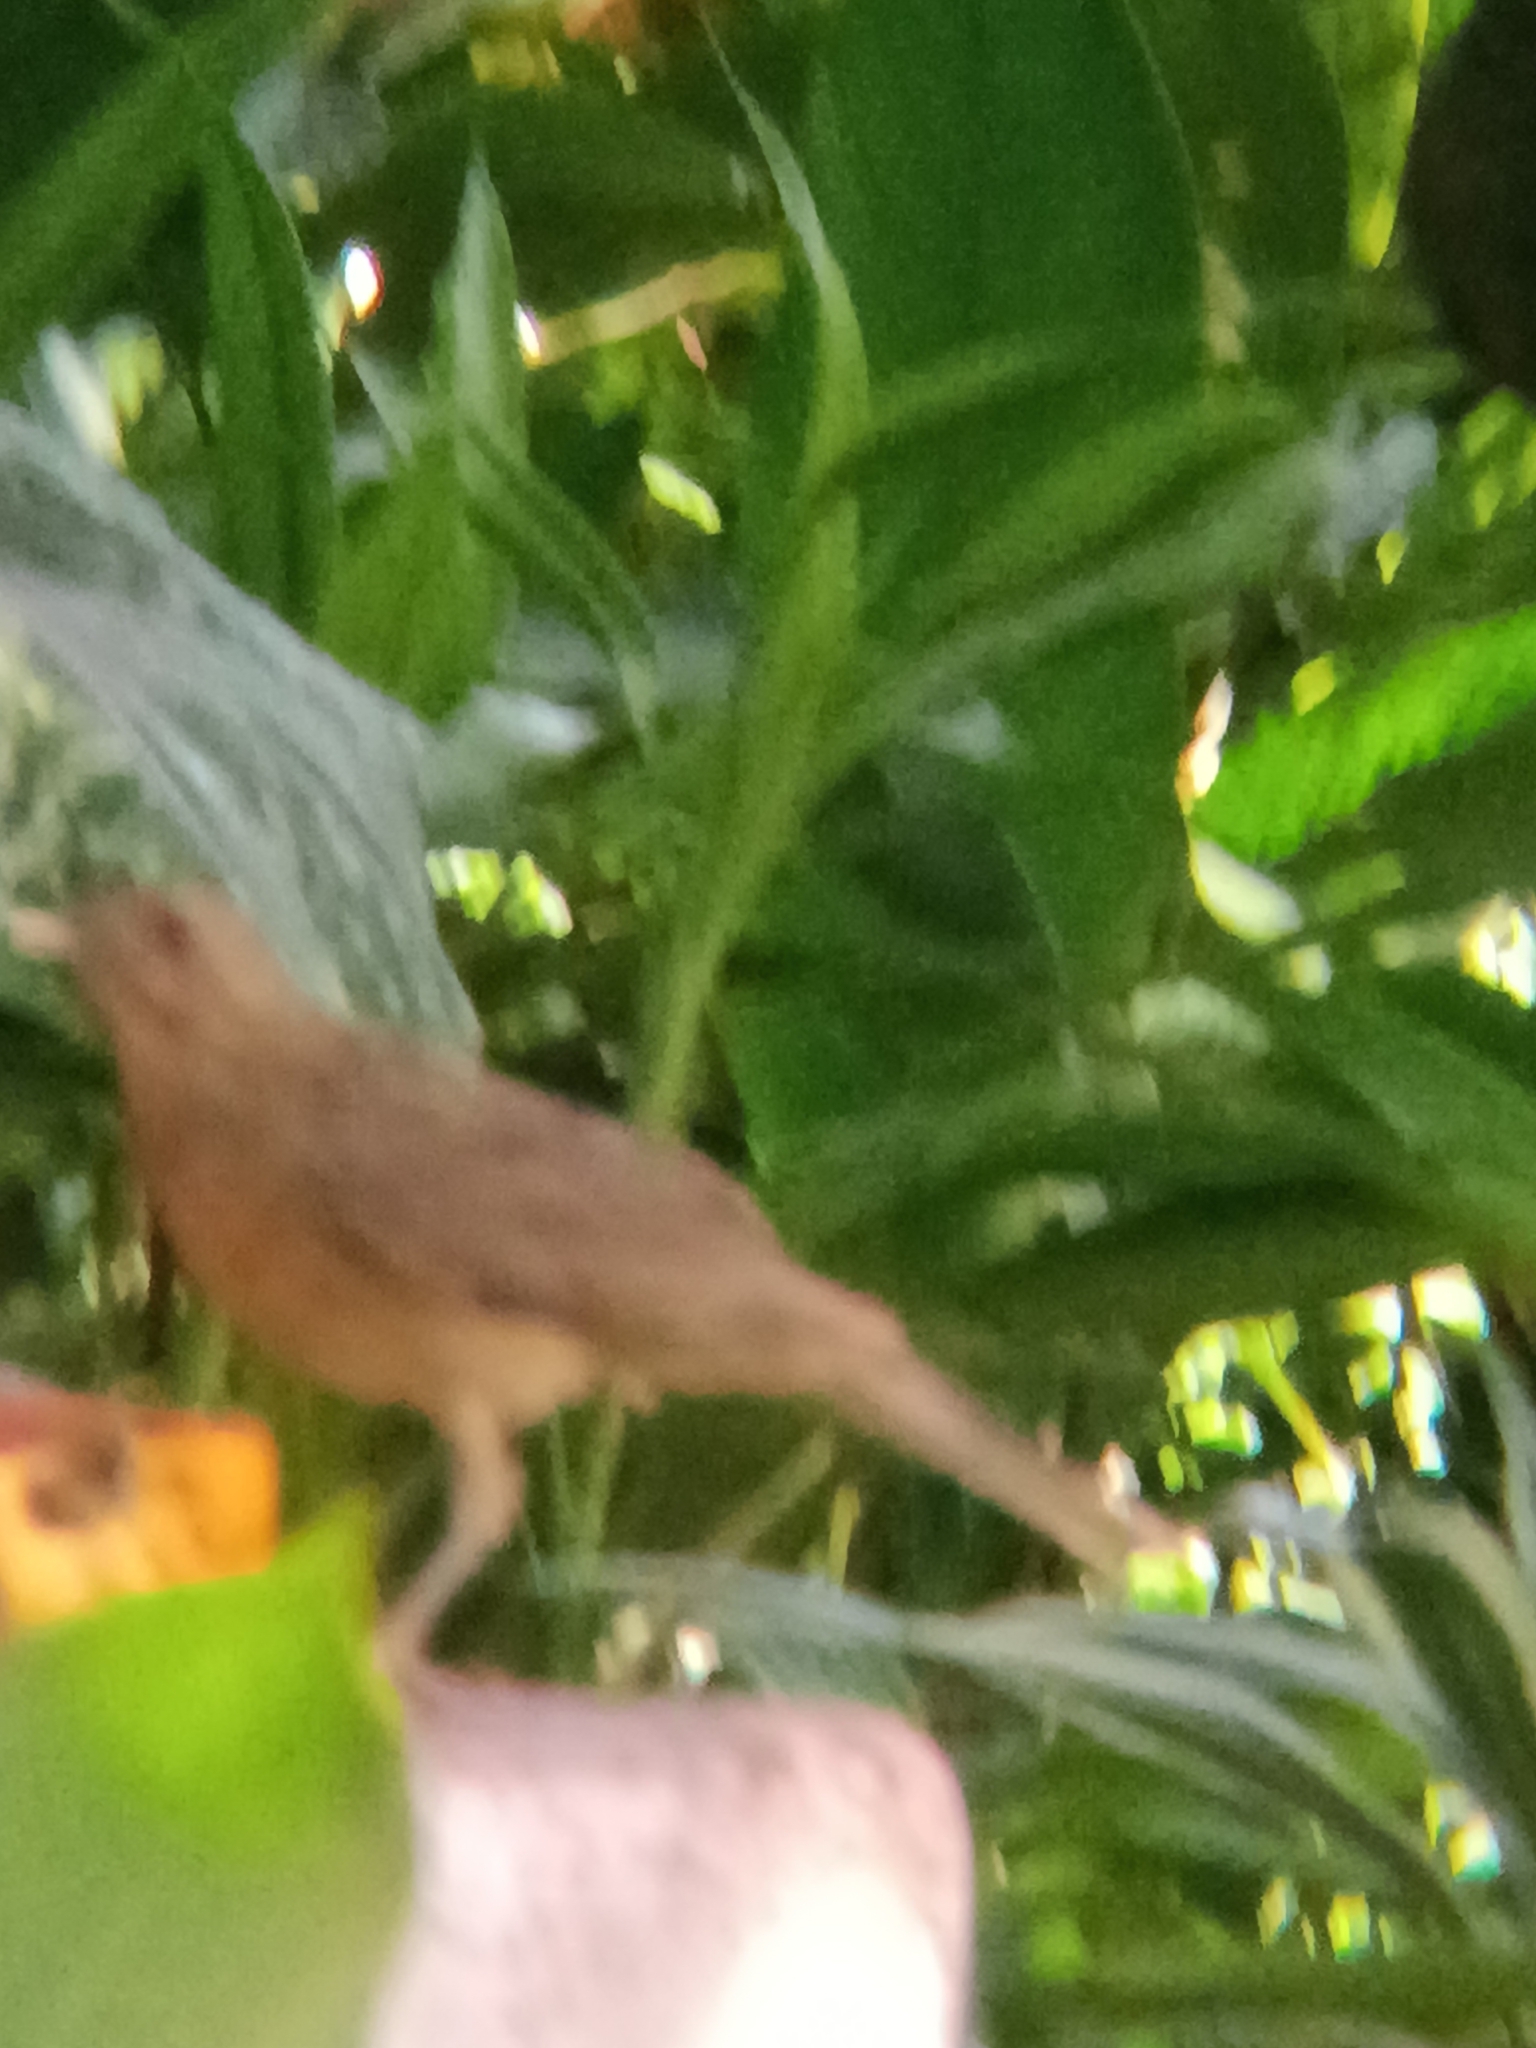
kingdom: Animalia
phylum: Chordata
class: Aves
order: Passeriformes
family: Turdidae
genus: Turdus
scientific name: Turdus grayi
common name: Clay-colored thrush
